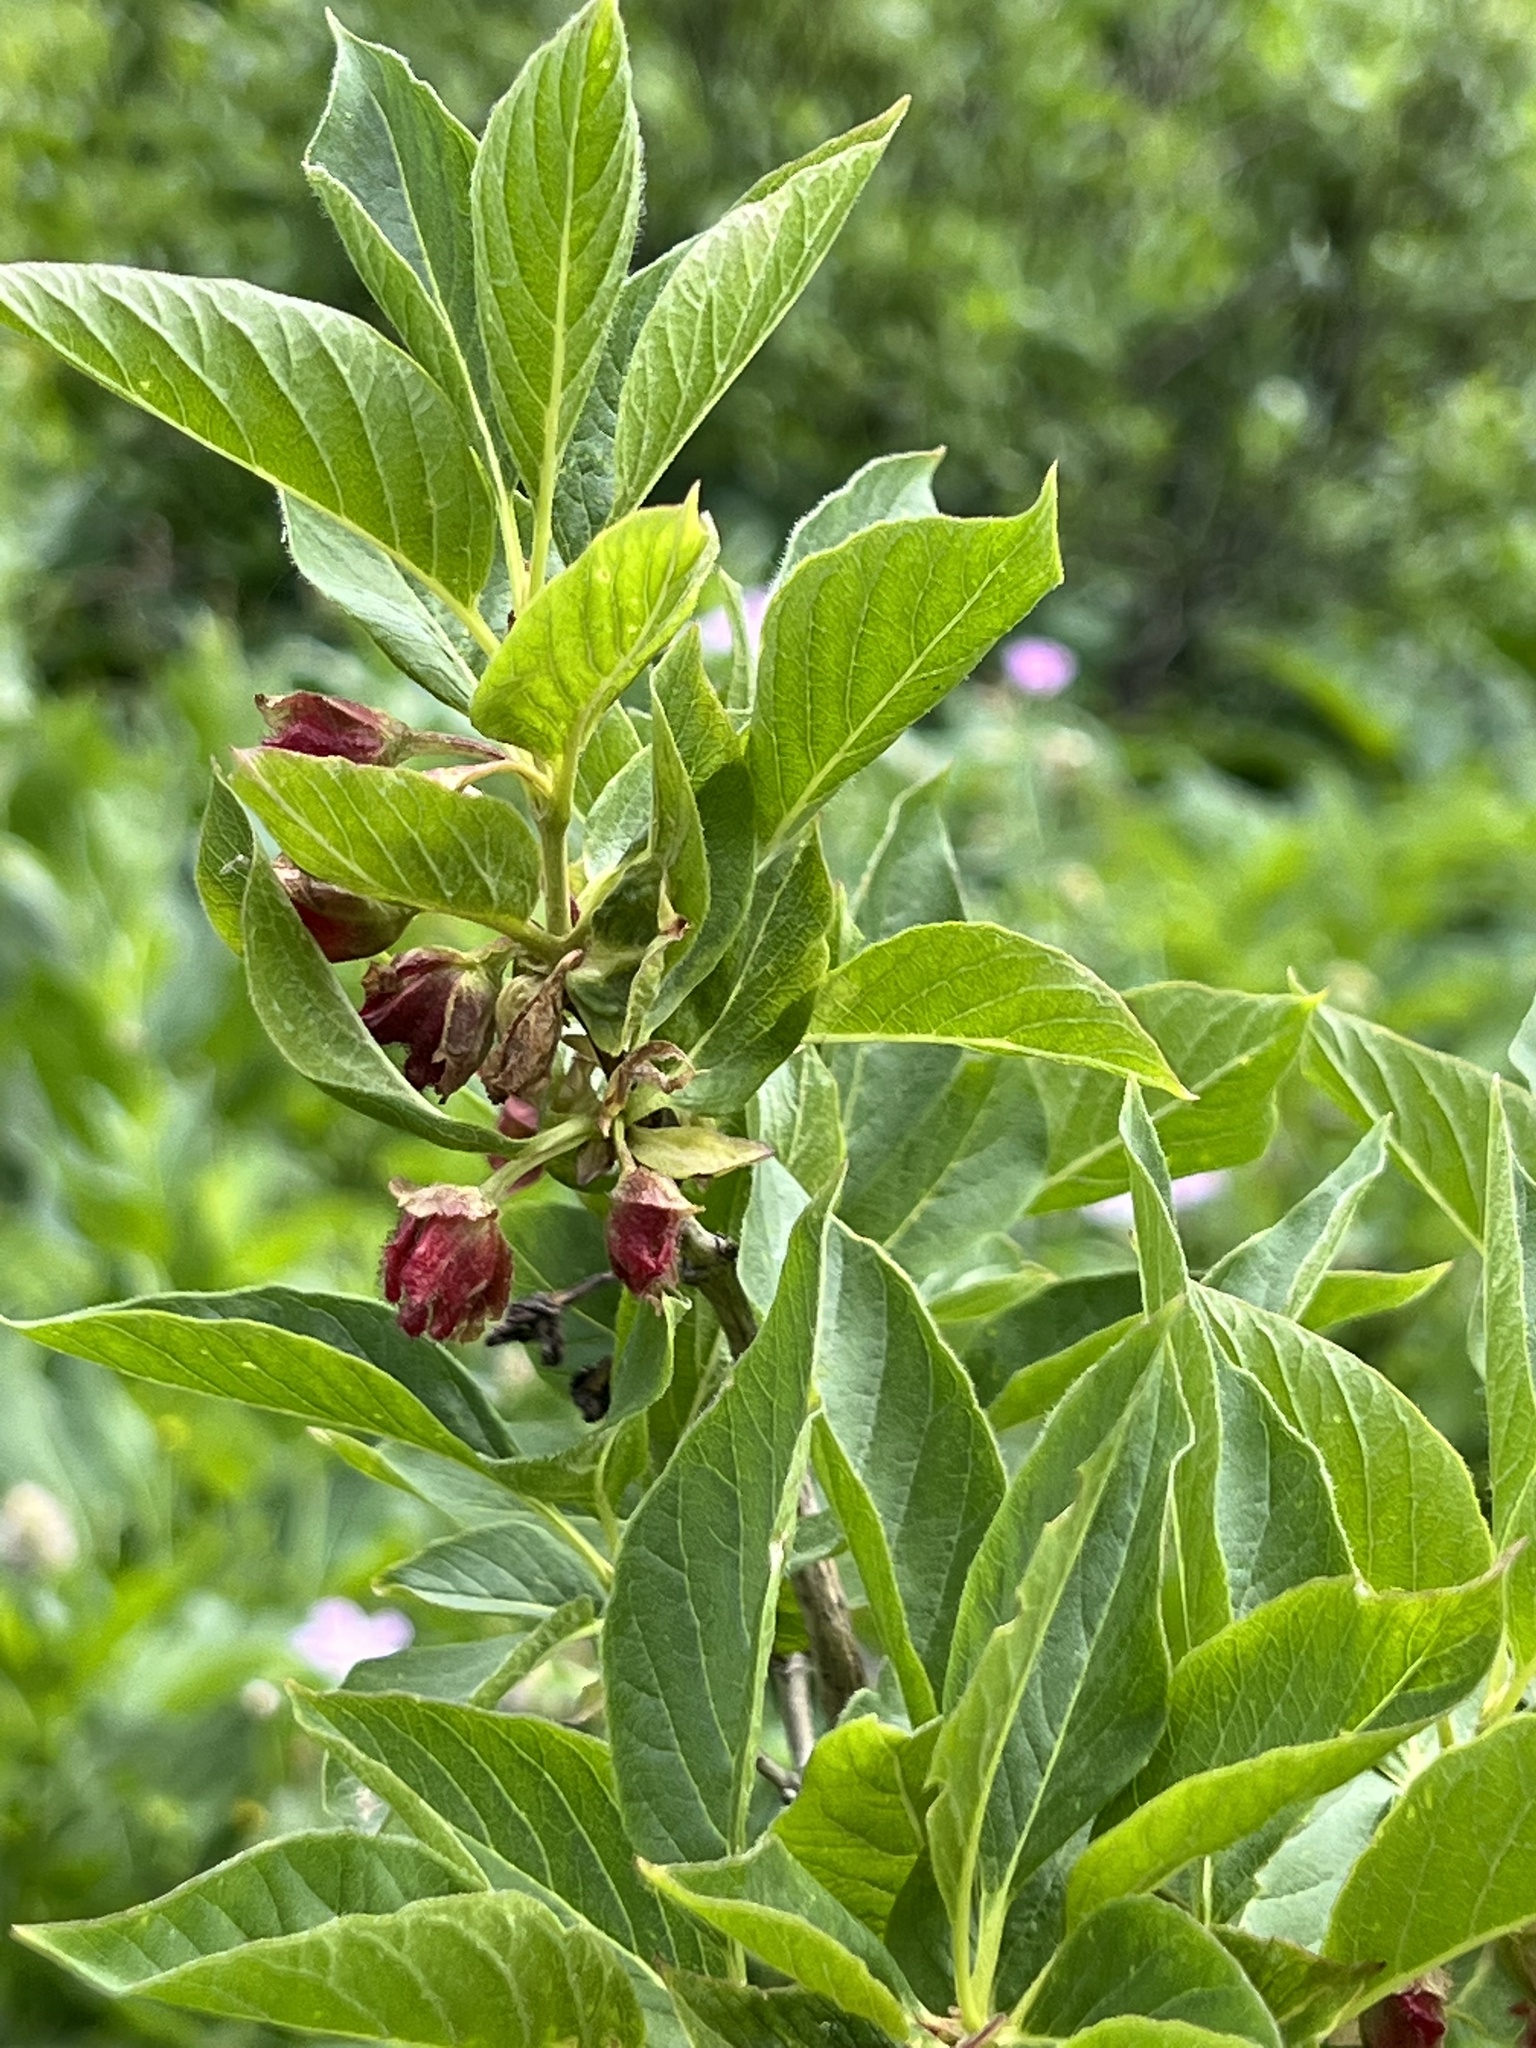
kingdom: Plantae
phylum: Tracheophyta
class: Magnoliopsida
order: Dipsacales
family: Caprifoliaceae
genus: Lonicera
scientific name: Lonicera involucrata
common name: Californian honeysuckle
